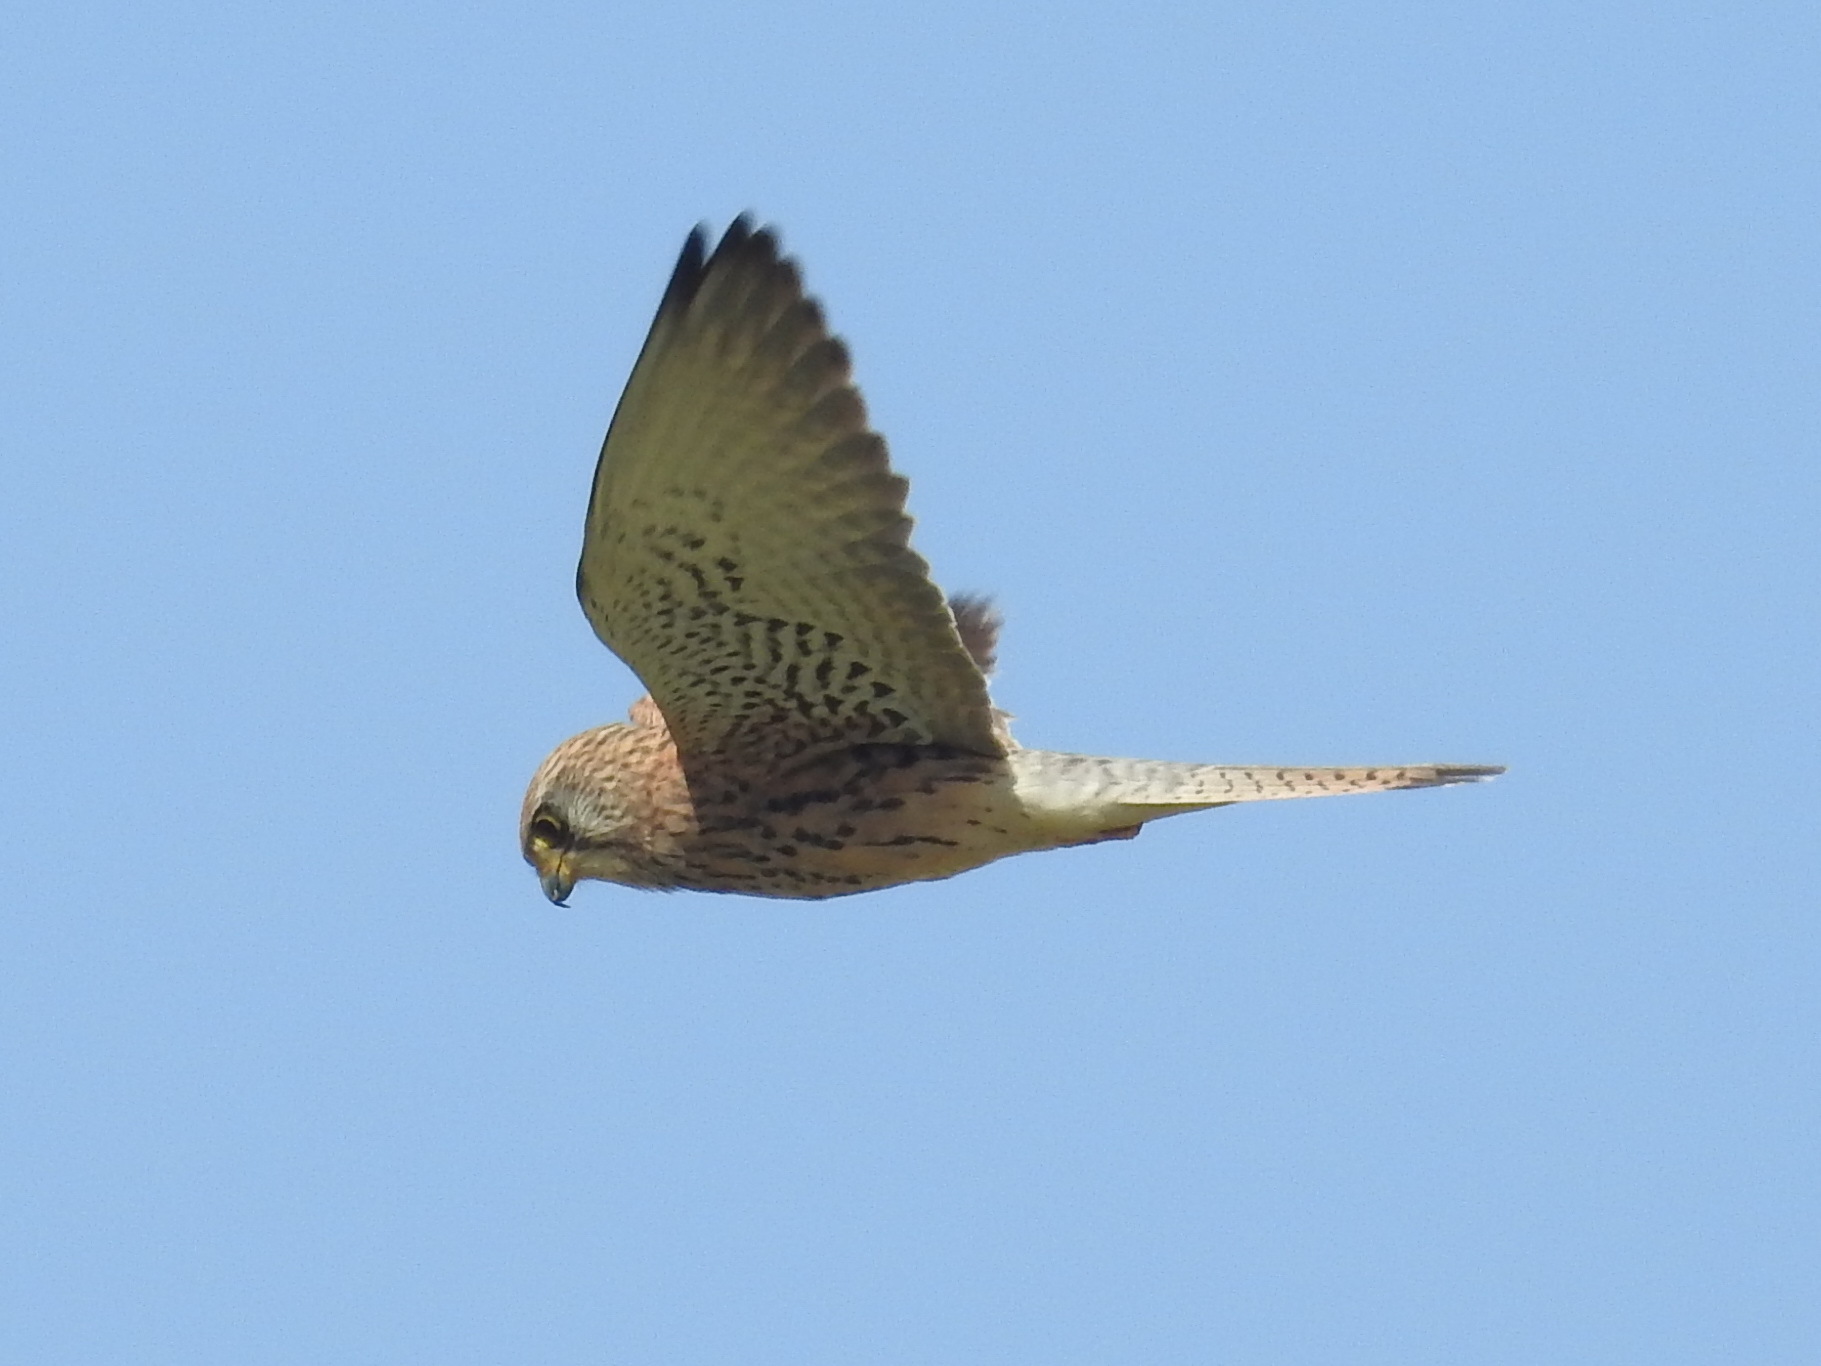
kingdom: Animalia
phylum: Chordata
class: Aves
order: Falconiformes
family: Falconidae
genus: Falco
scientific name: Falco naumanni
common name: Lesser kestrel
